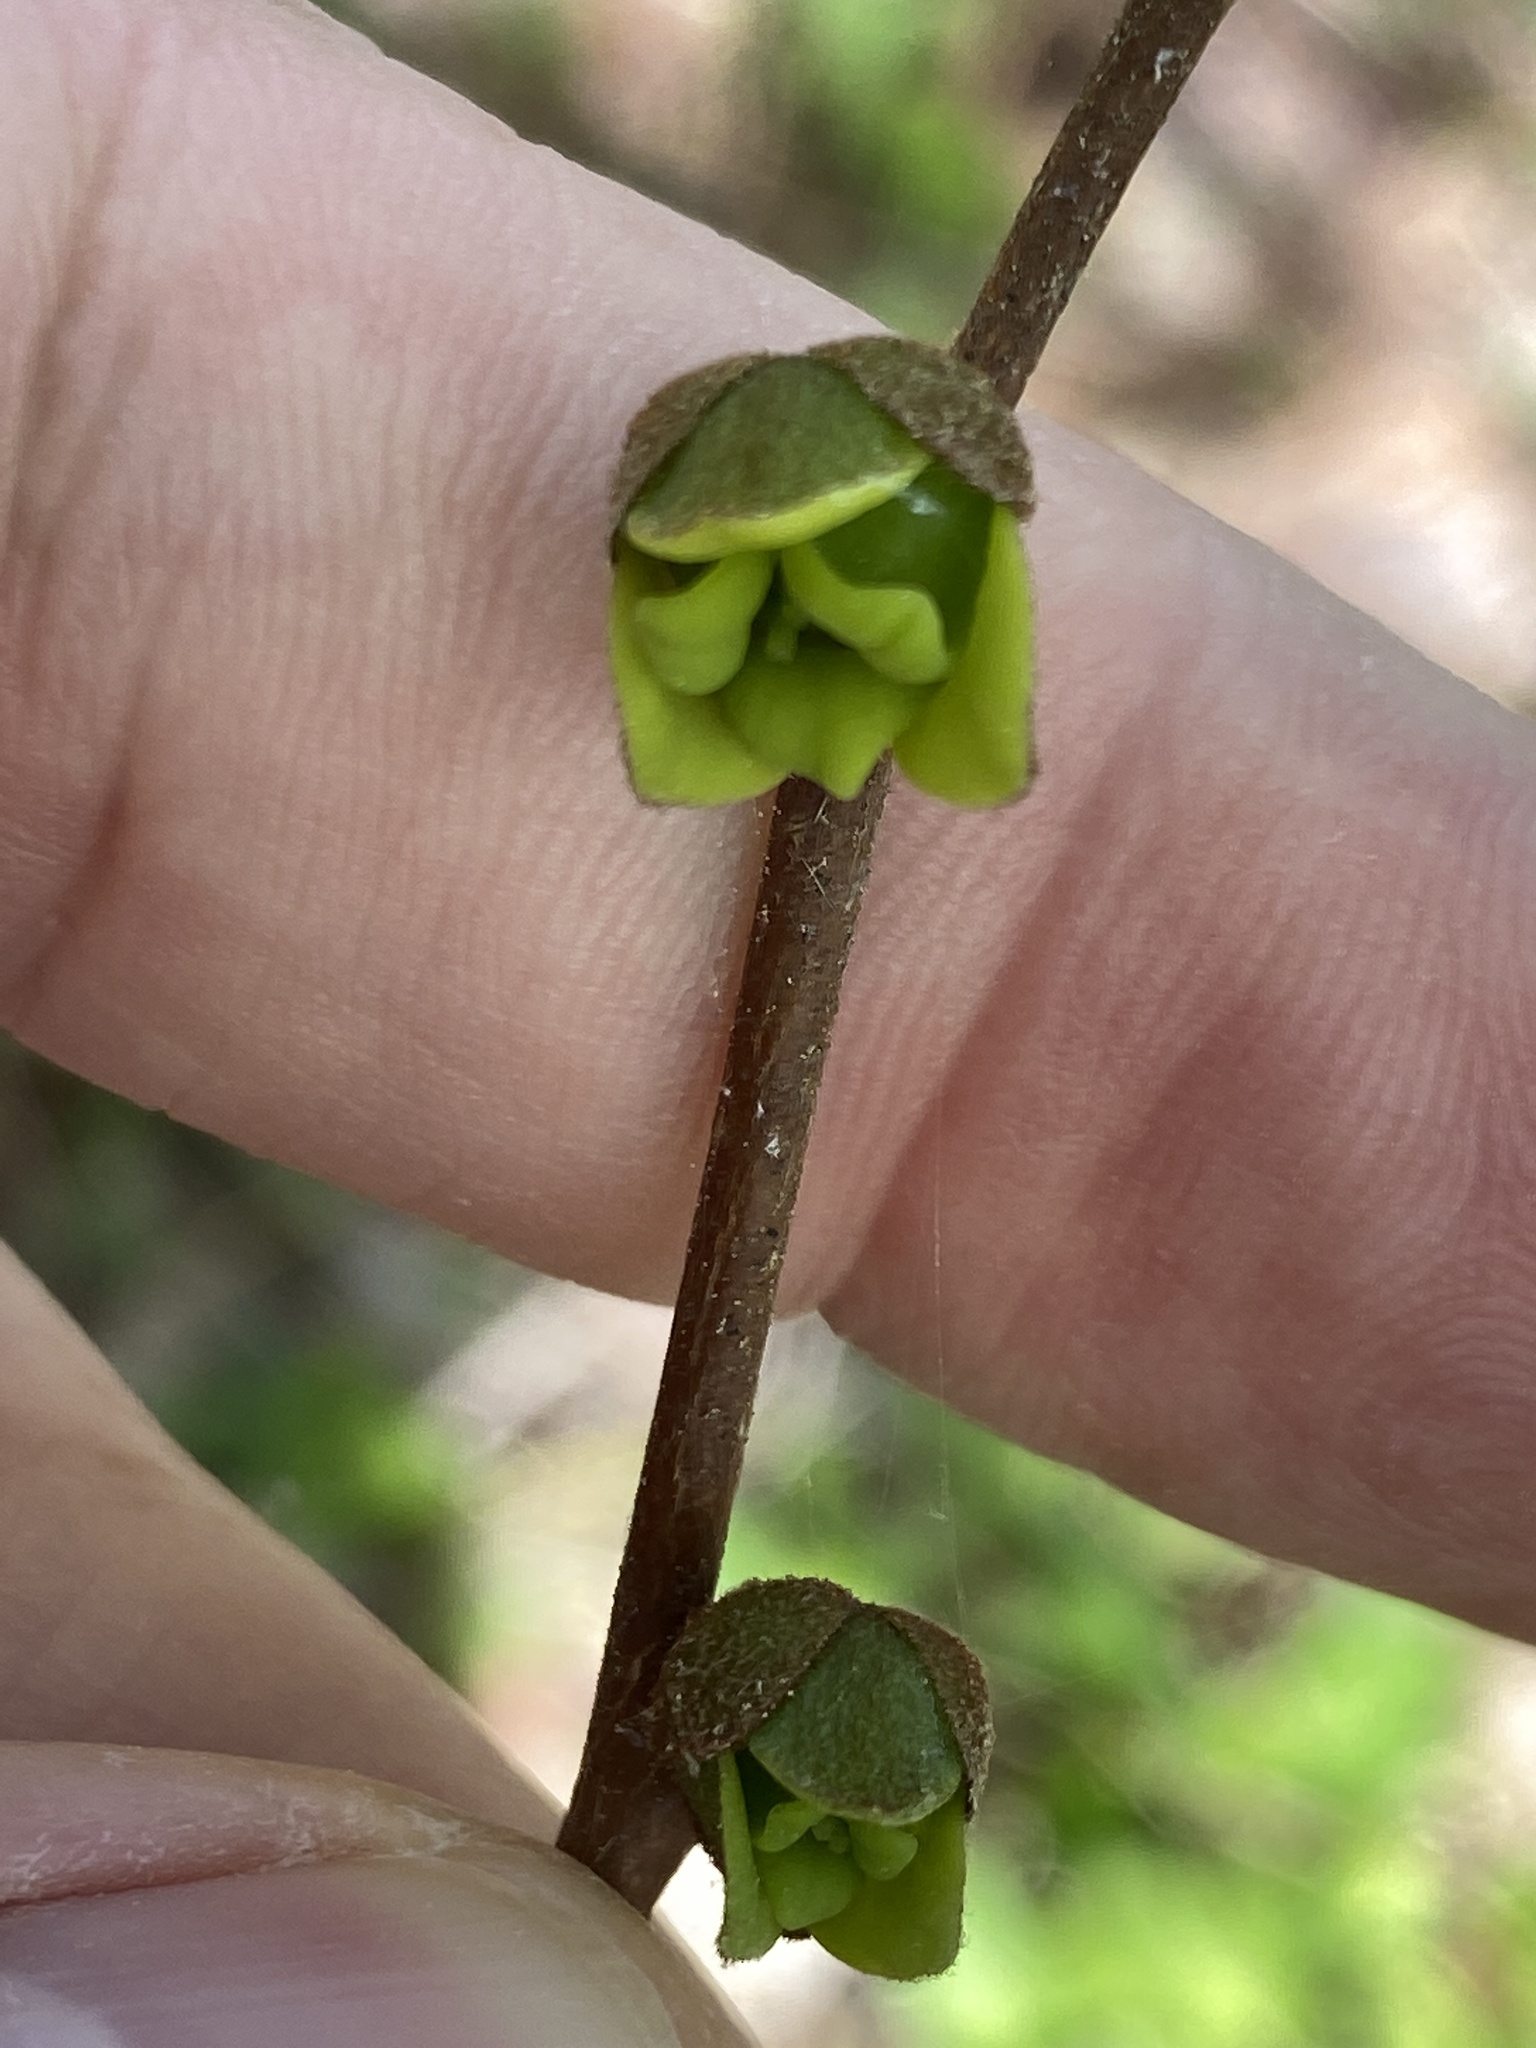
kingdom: Plantae
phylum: Tracheophyta
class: Magnoliopsida
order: Magnoliales
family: Annonaceae
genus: Asimina
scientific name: Asimina parviflora
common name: Dwarf pawpaw
